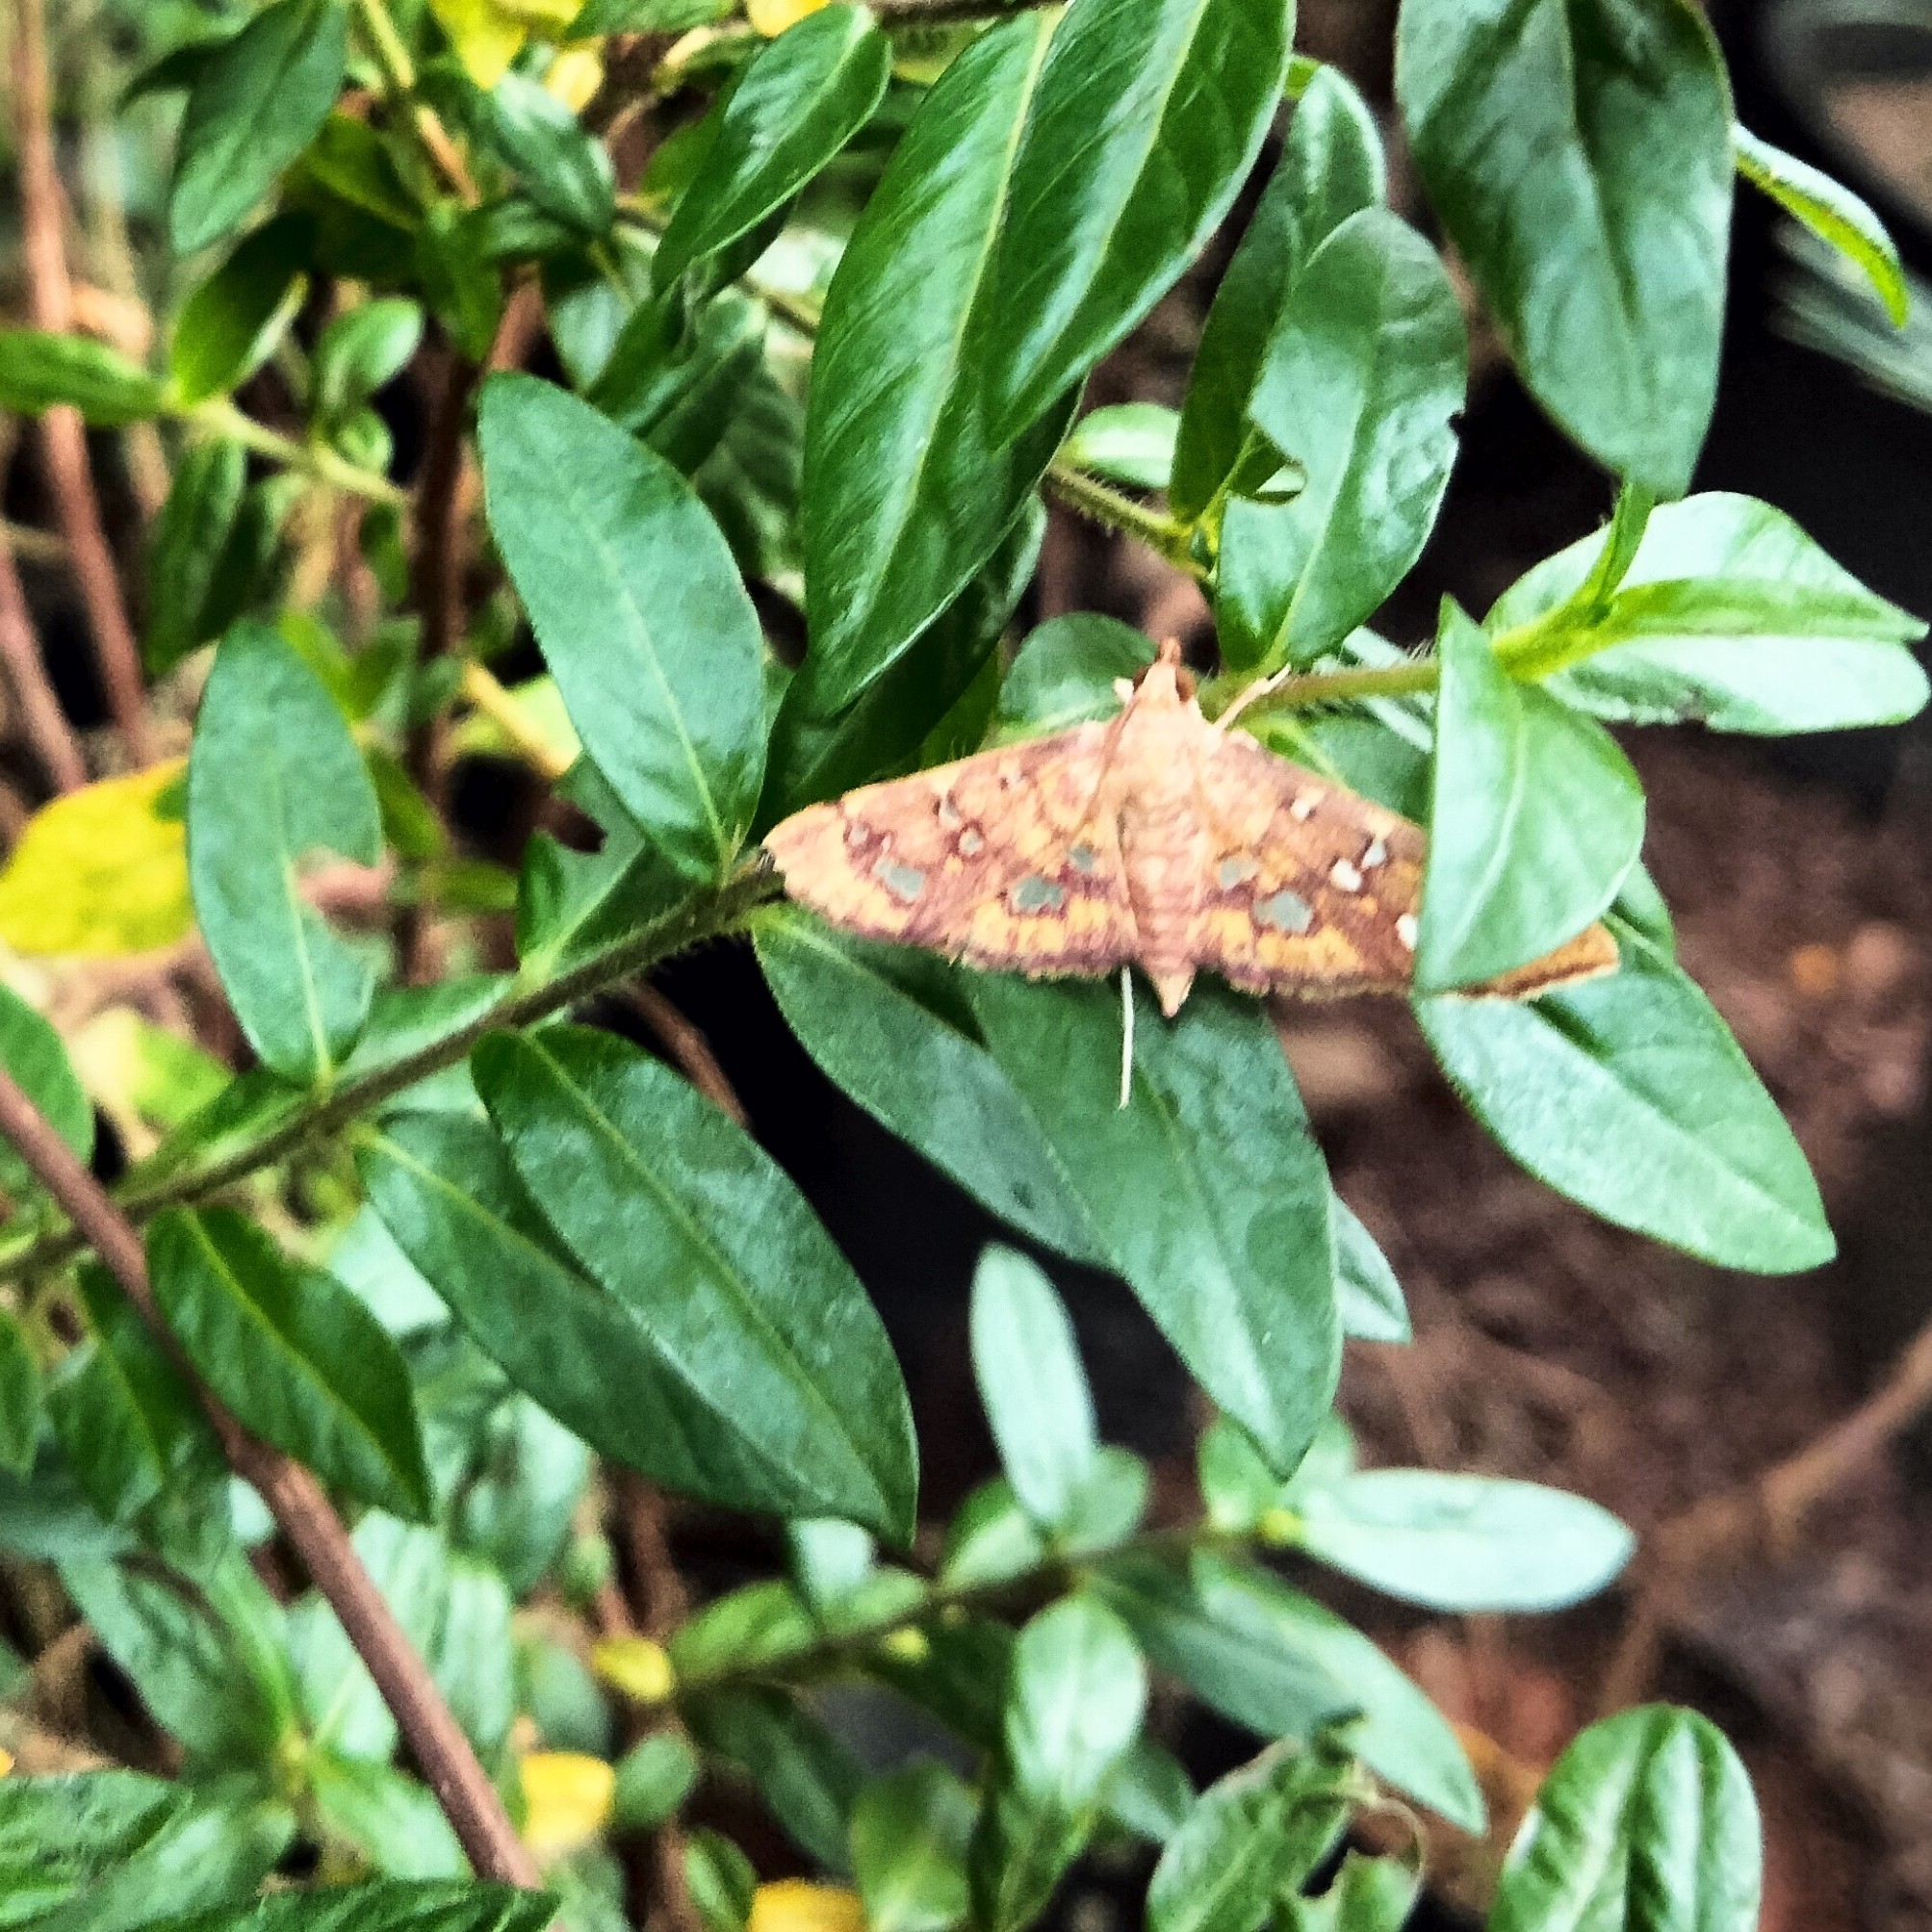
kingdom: Animalia
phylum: Arthropoda
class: Insecta
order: Lepidoptera
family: Crambidae
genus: Ischnurges
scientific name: Ischnurges gratiosalis
